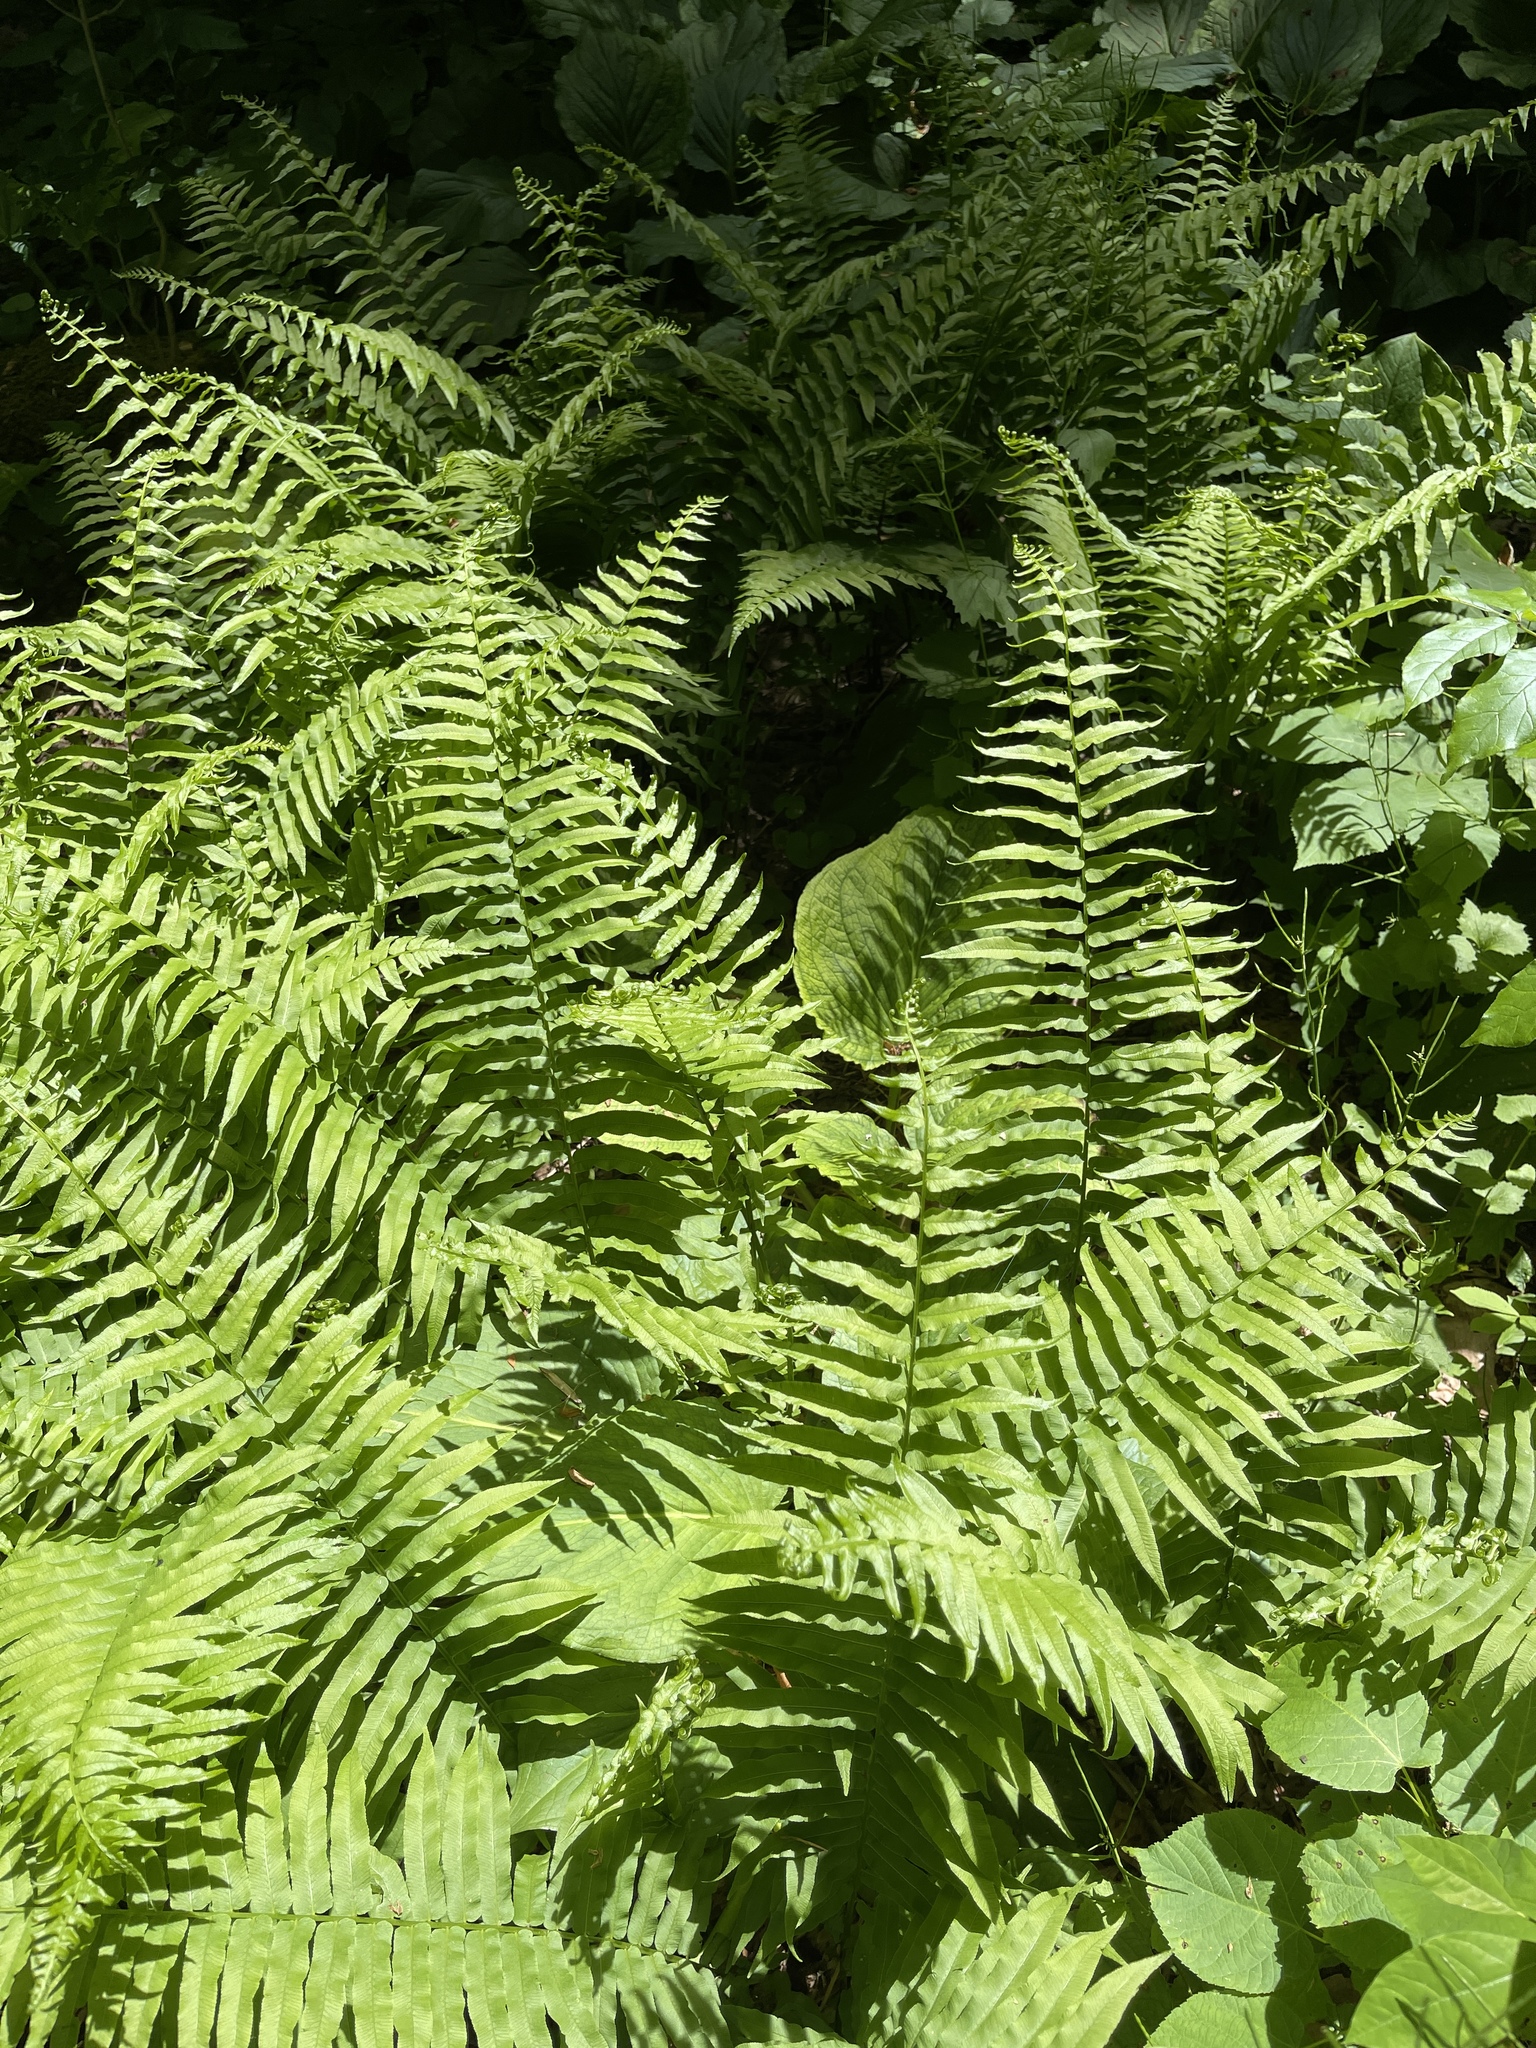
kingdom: Plantae
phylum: Tracheophyta
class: Polypodiopsida
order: Polypodiales
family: Diplaziopsidaceae
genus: Homalosorus
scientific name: Homalosorus pycnocarpos
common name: Glade fern
